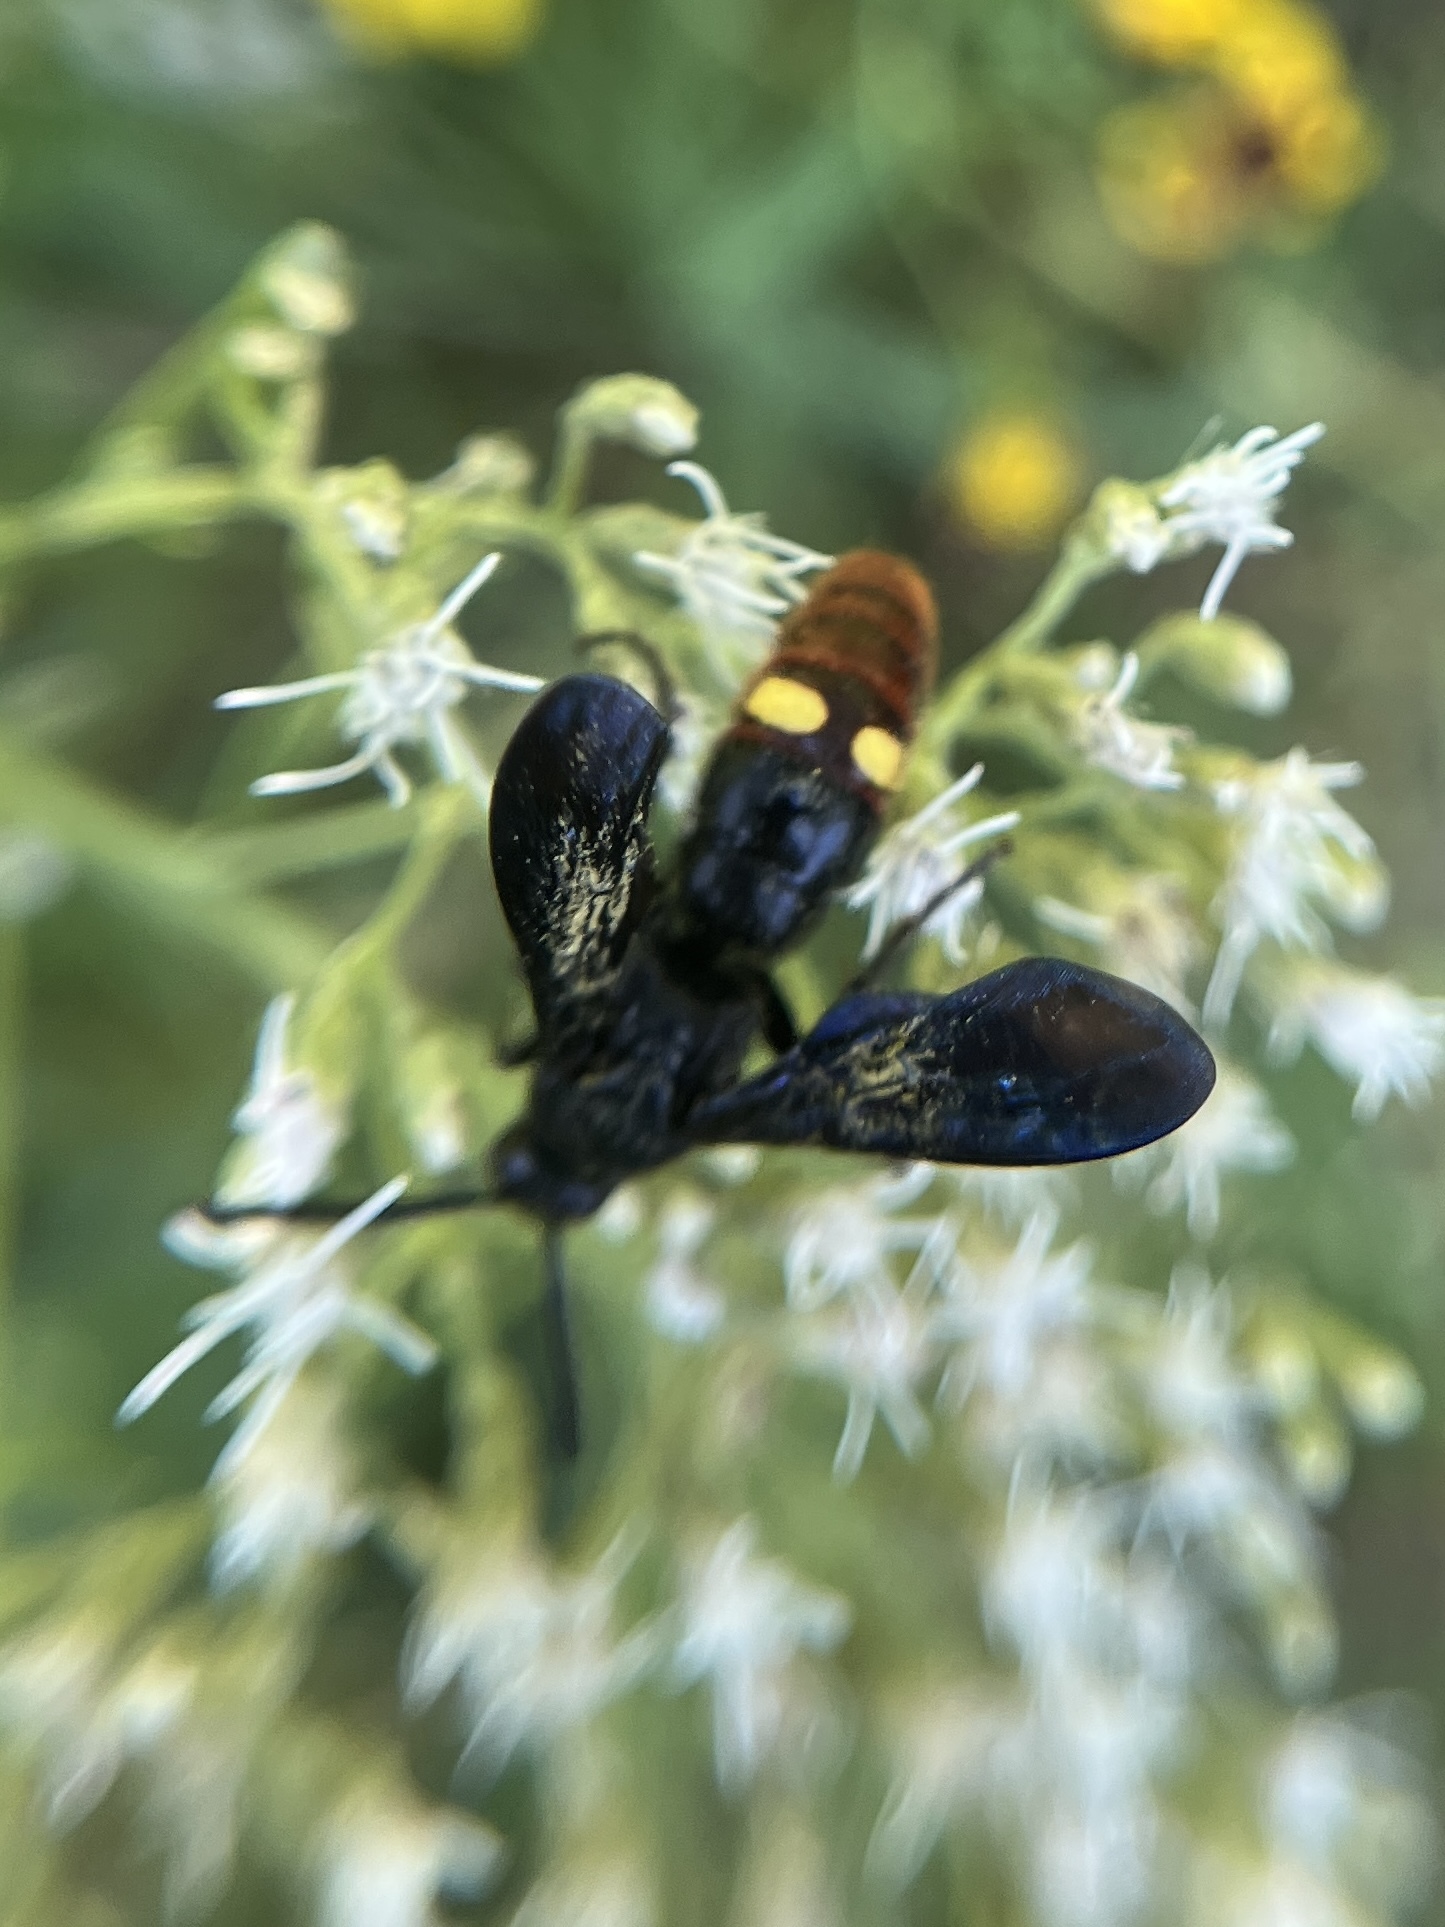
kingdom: Animalia
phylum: Arthropoda
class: Insecta
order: Hymenoptera
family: Scoliidae
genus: Scolia
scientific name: Scolia dubia
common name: Blue-winged scoliid wasp
